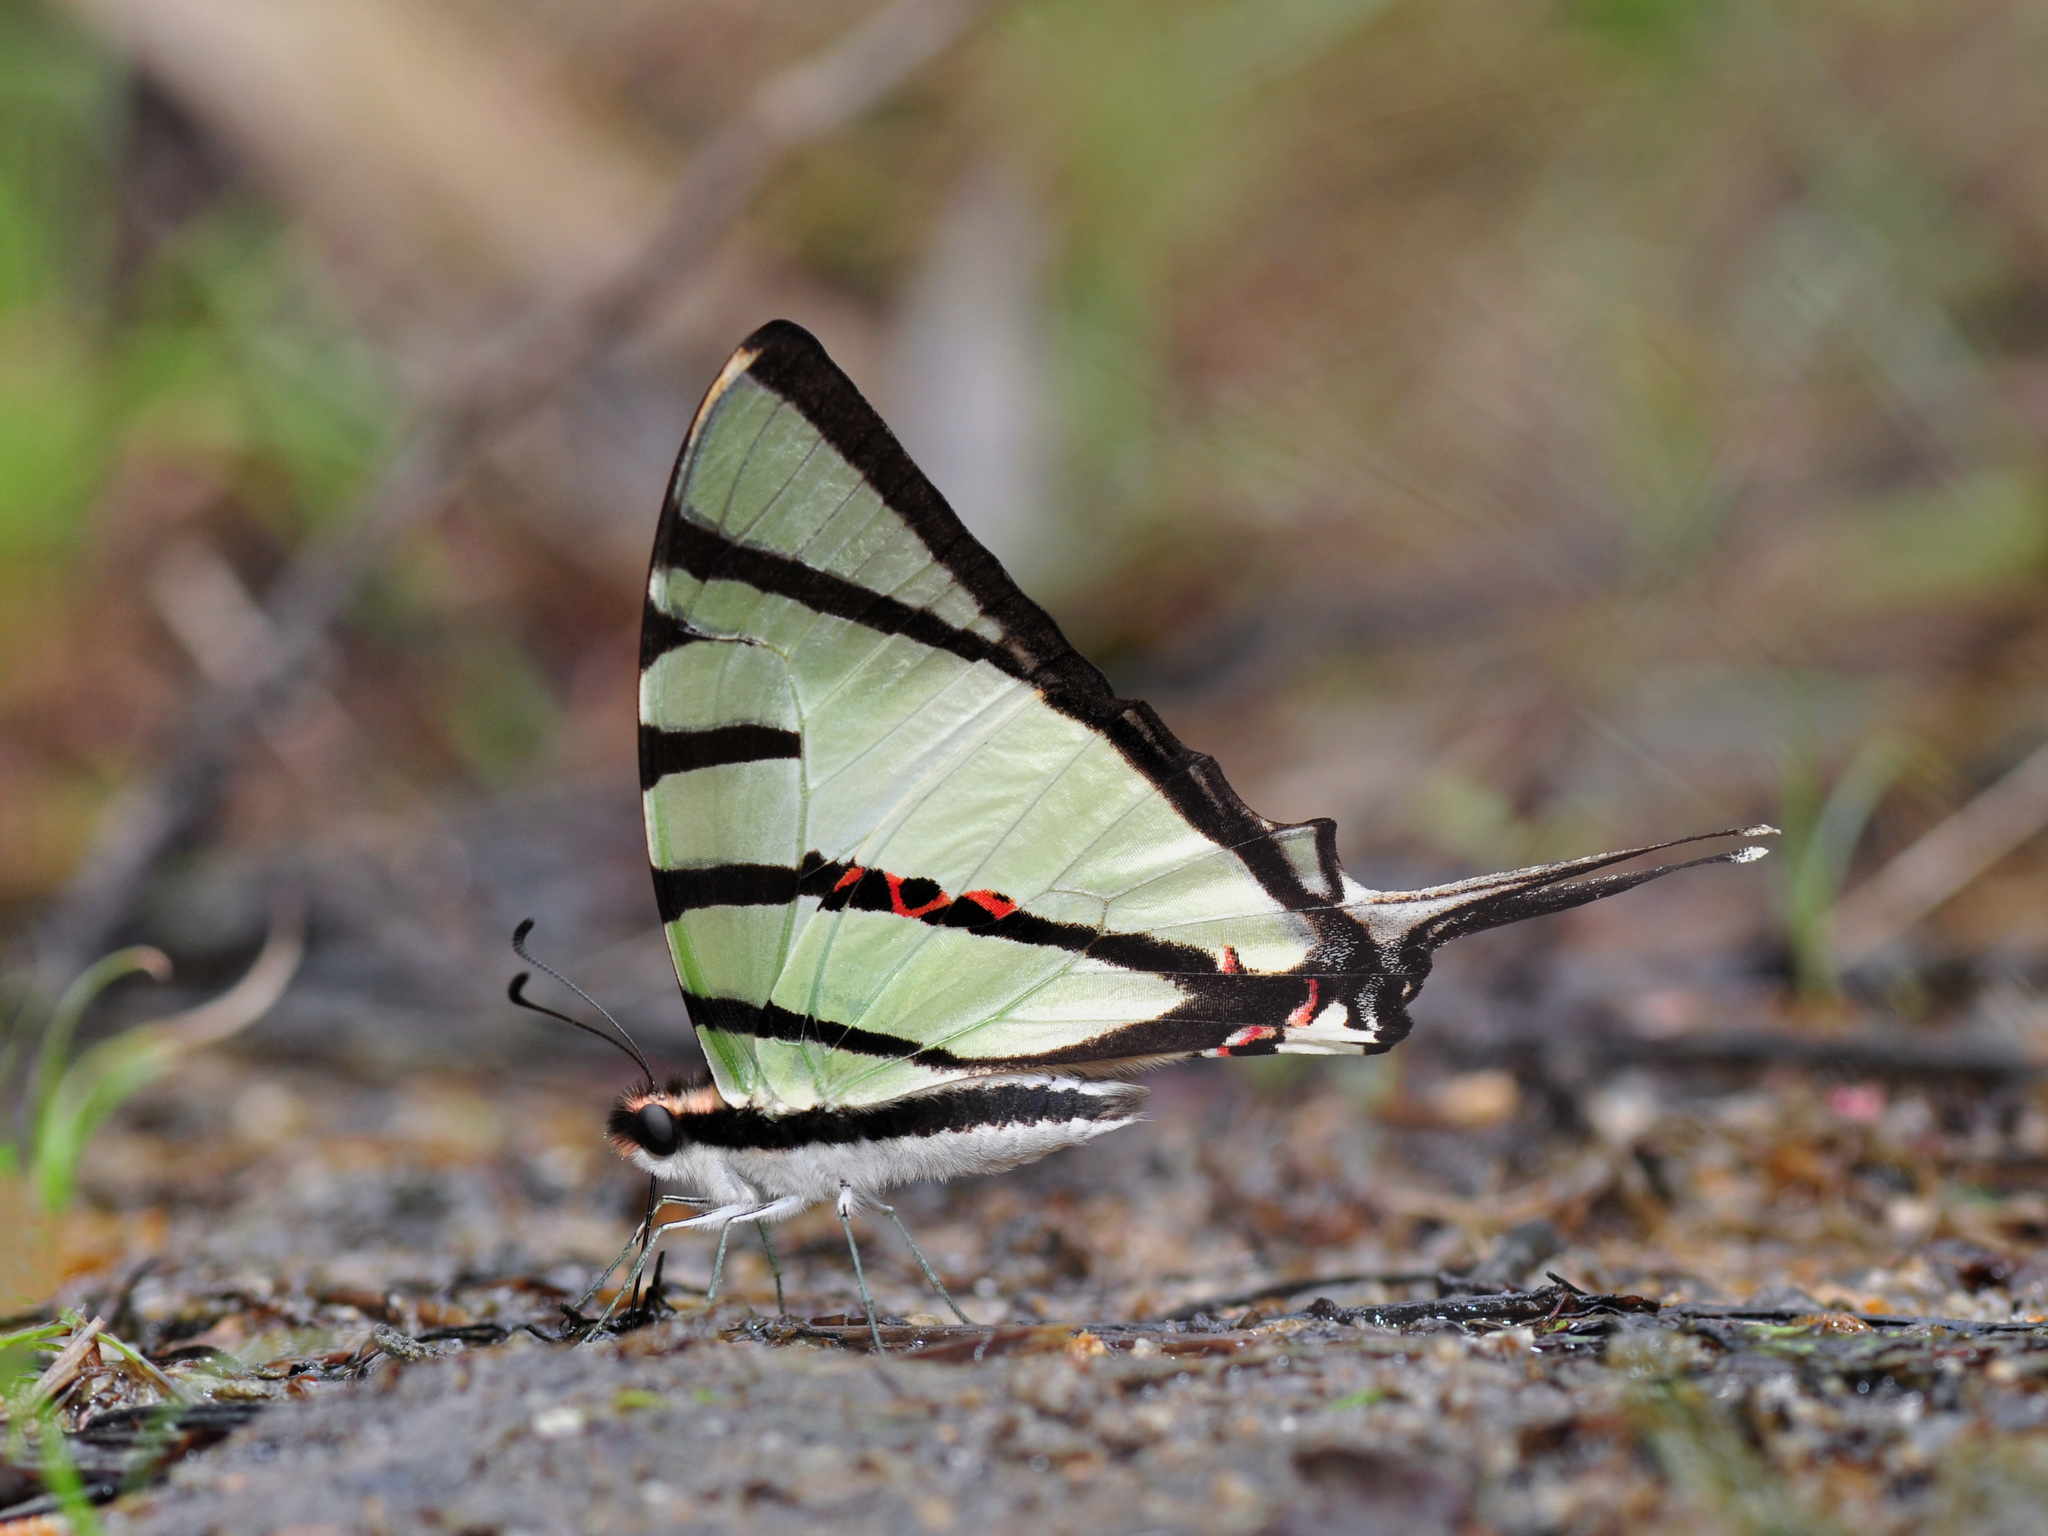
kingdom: Animalia
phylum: Arthropoda
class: Insecta
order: Lepidoptera
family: Papilionidae
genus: Graphium
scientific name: Graphium agetes
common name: Fourbar swordtail
